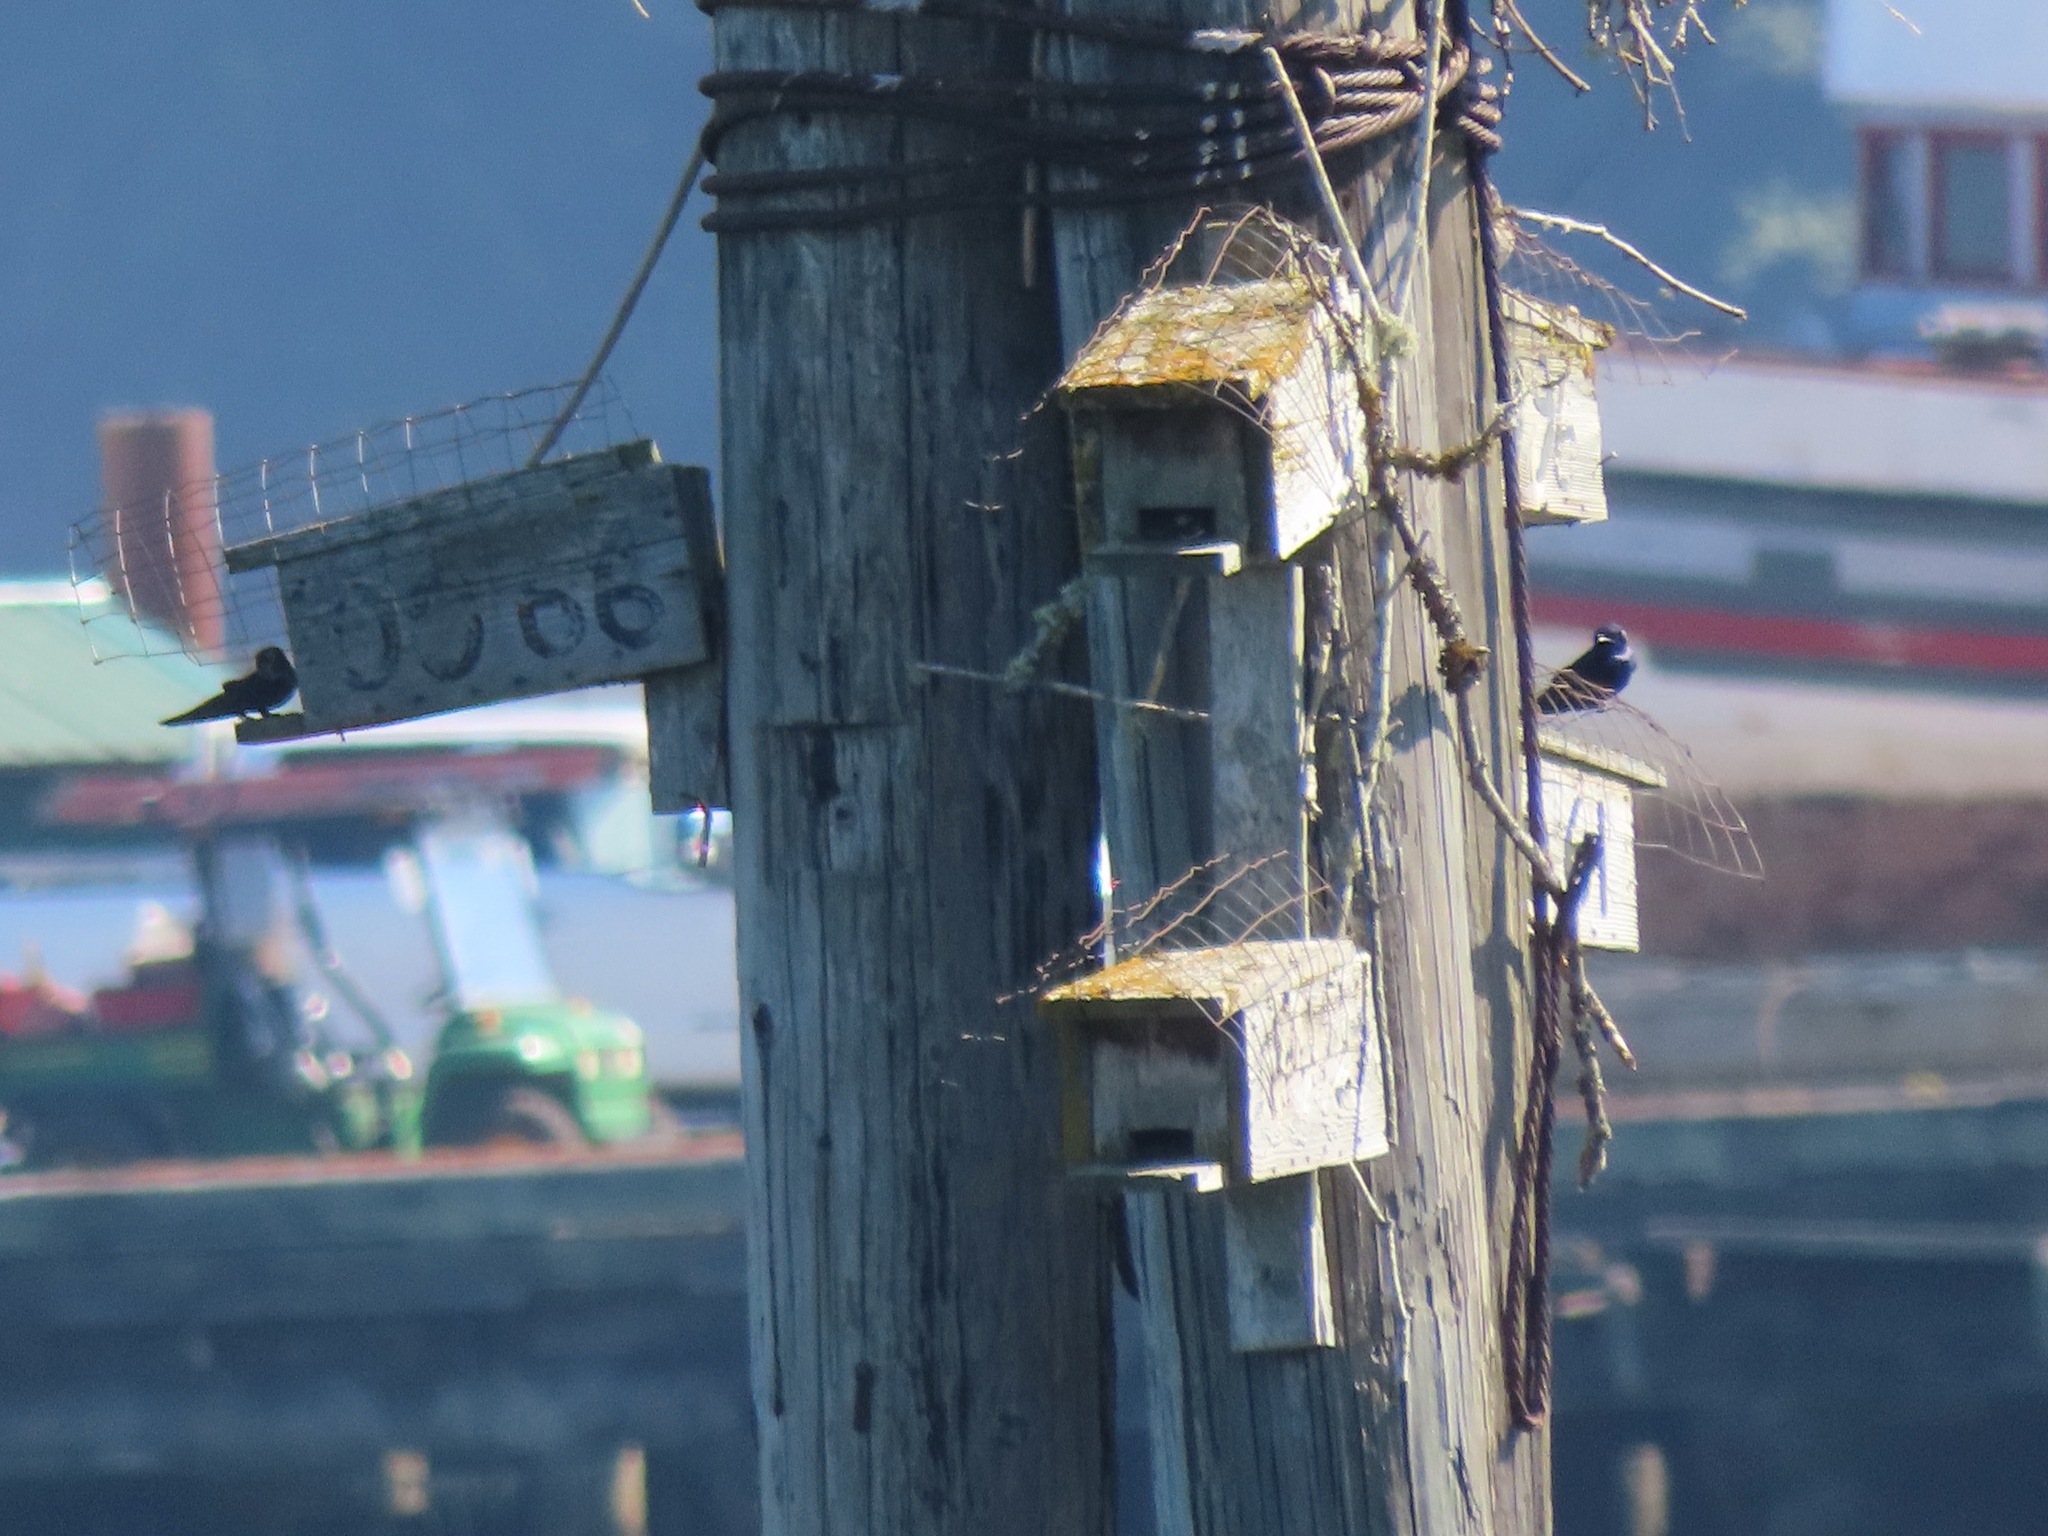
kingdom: Animalia
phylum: Chordata
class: Aves
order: Passeriformes
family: Hirundinidae
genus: Progne
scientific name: Progne subis
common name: Purple martin
